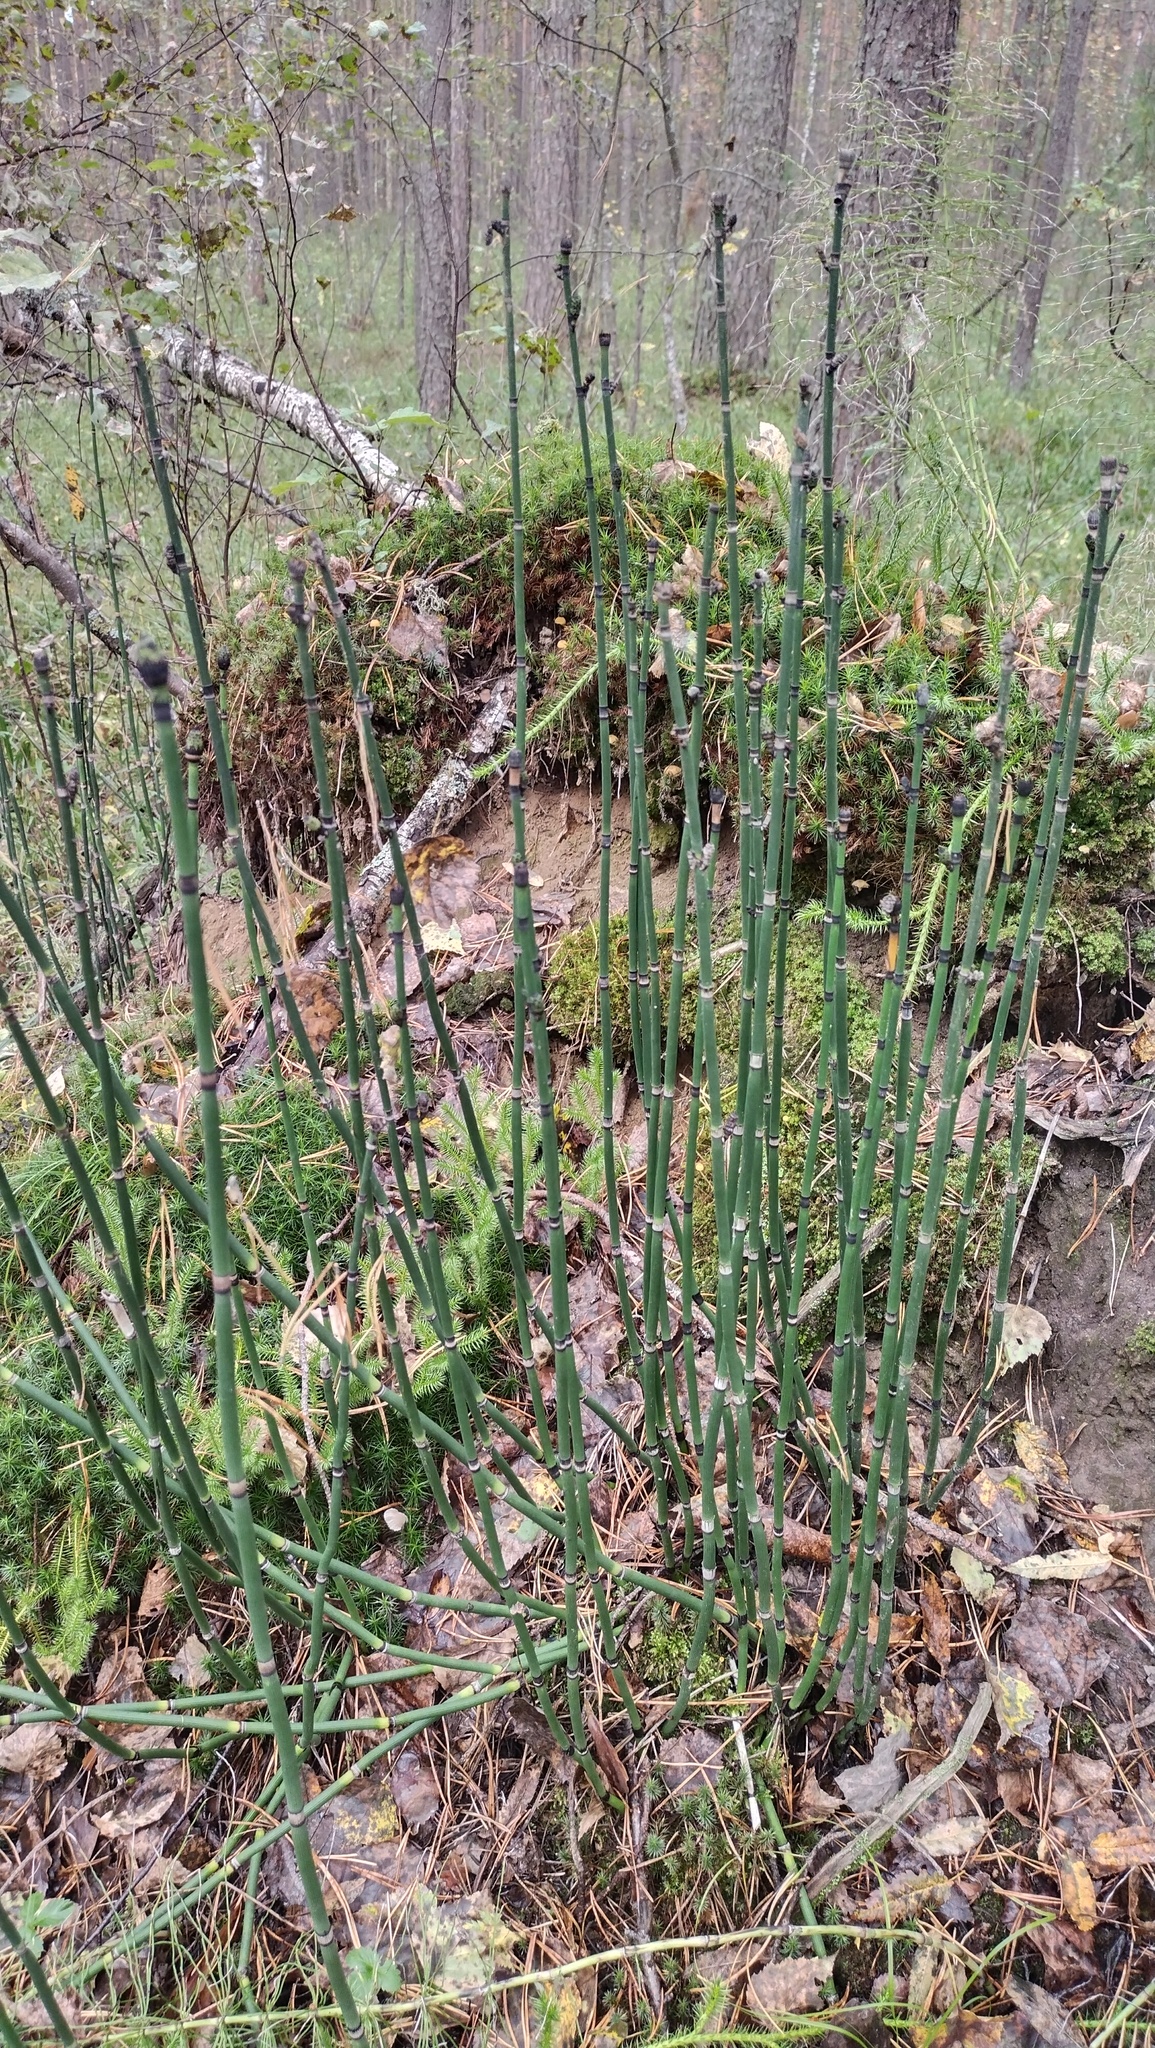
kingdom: Plantae
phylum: Tracheophyta
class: Polypodiopsida
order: Equisetales
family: Equisetaceae
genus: Equisetum
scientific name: Equisetum hyemale
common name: Rough horsetail
